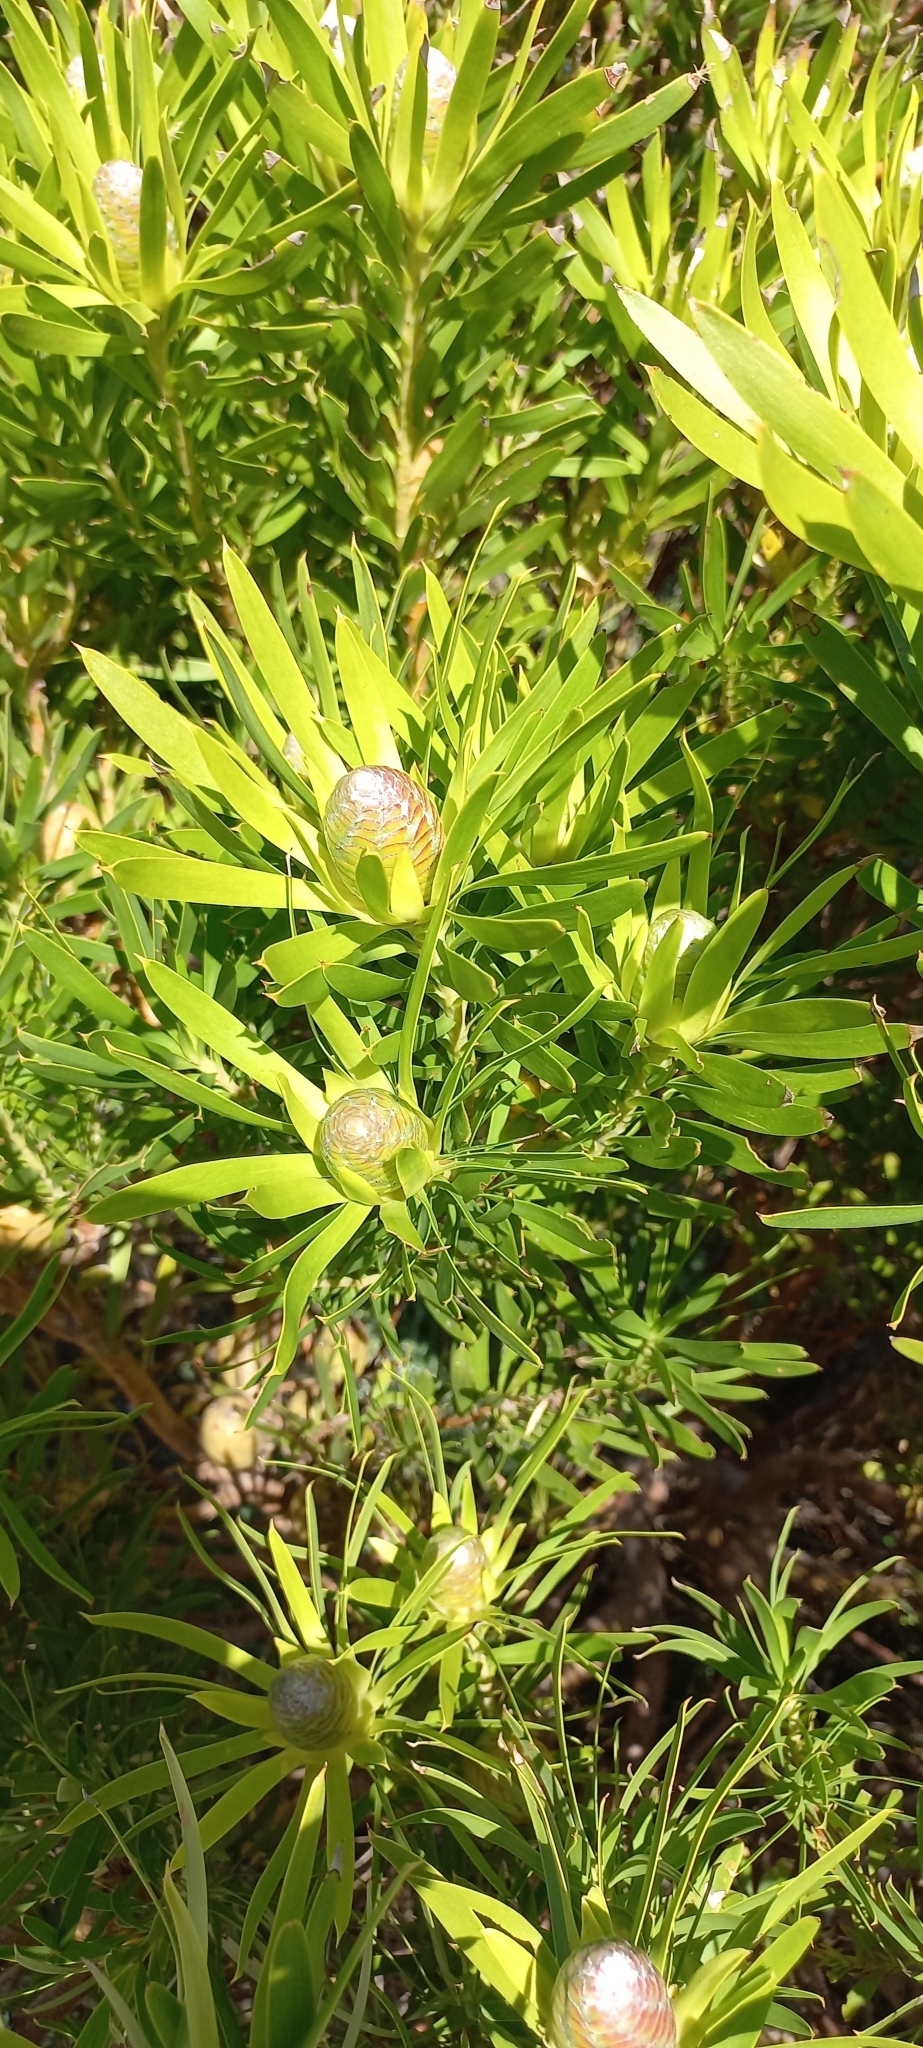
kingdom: Plantae
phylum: Tracheophyta
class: Magnoliopsida
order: Proteales
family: Proteaceae
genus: Leucadendron
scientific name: Leucadendron xanthoconus
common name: Sickle-leaf conebush
